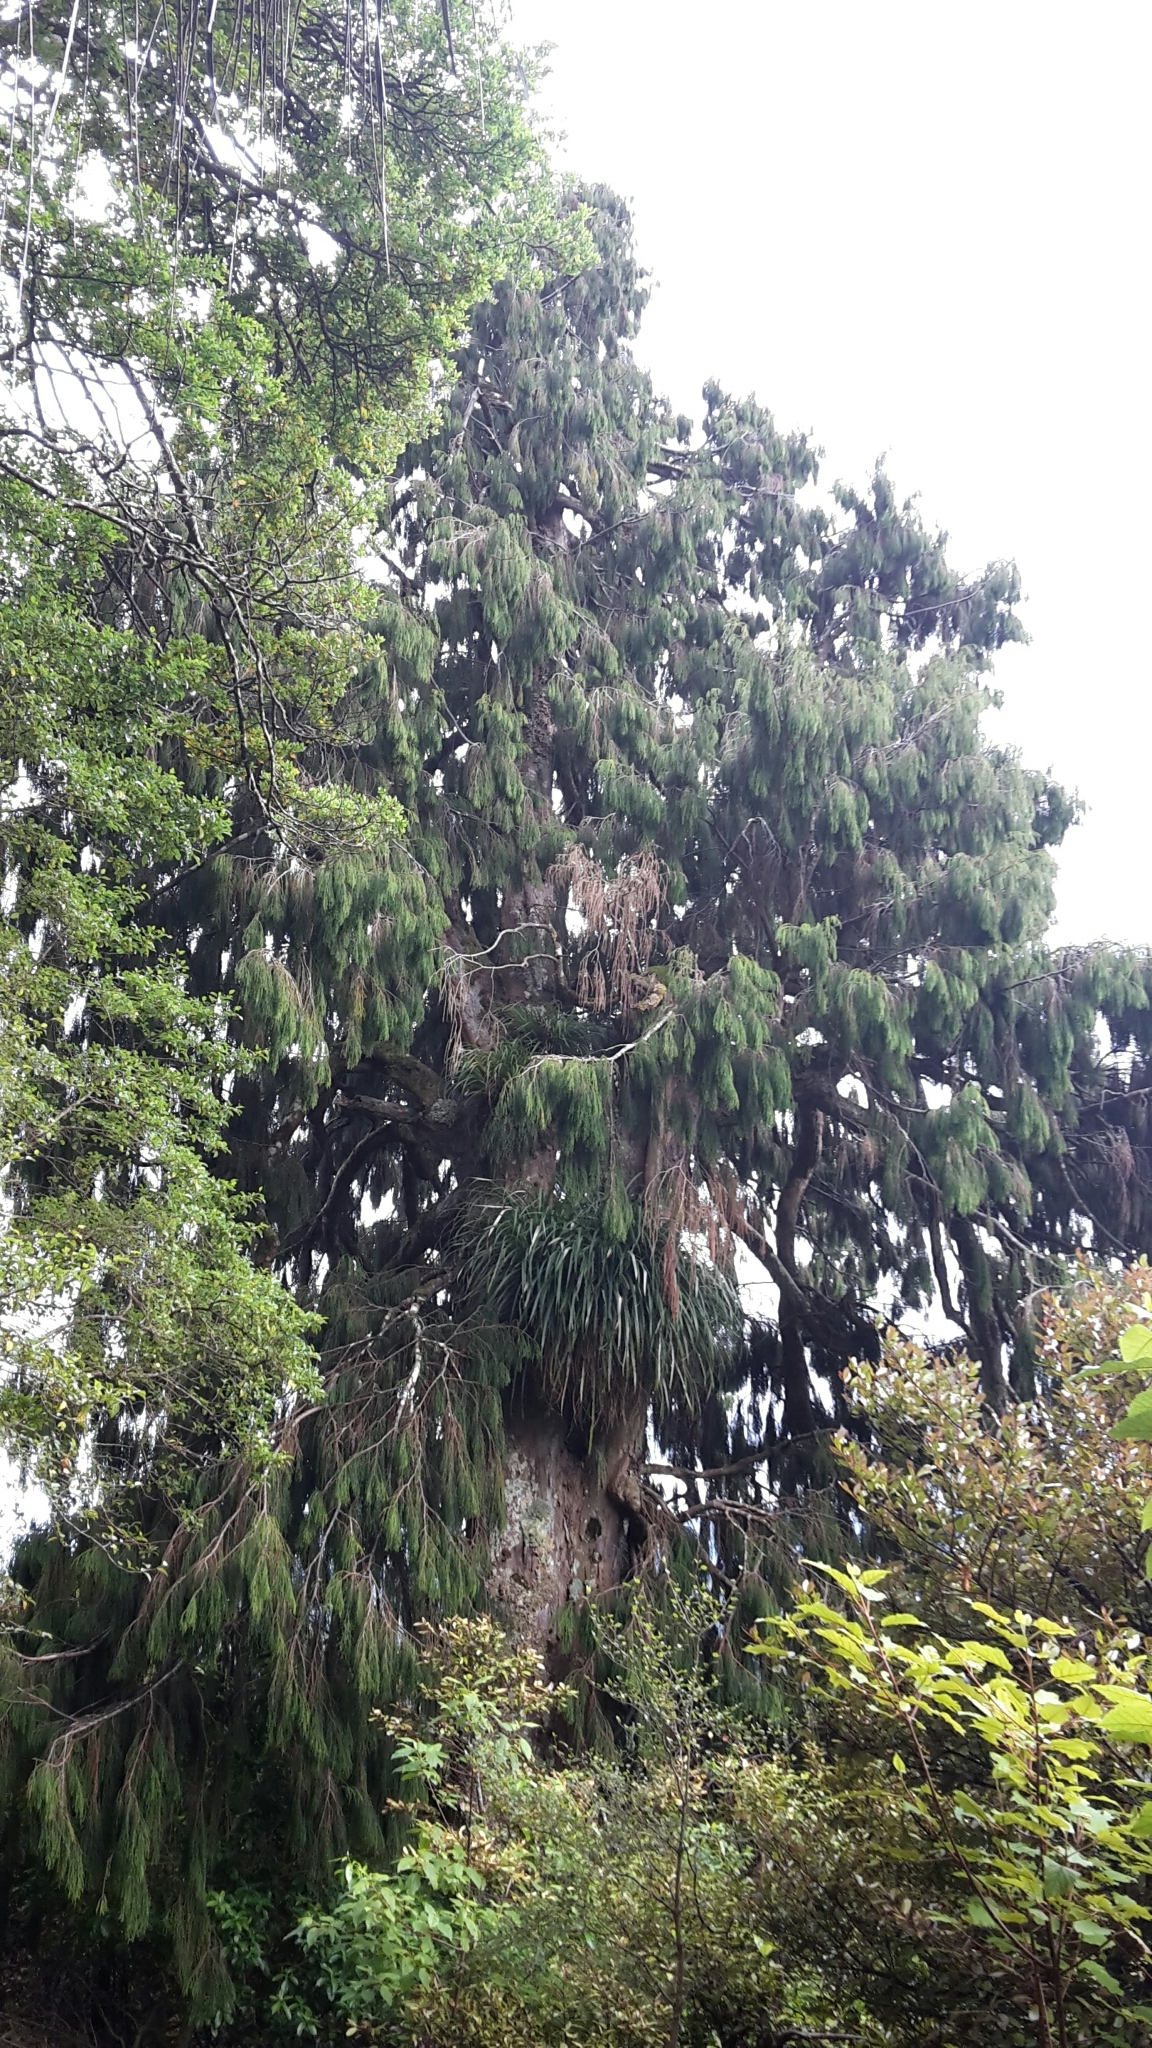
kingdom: Plantae
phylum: Tracheophyta
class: Pinopsida
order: Pinales
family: Podocarpaceae
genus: Dacrydium
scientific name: Dacrydium cupressinum
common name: Red pine
